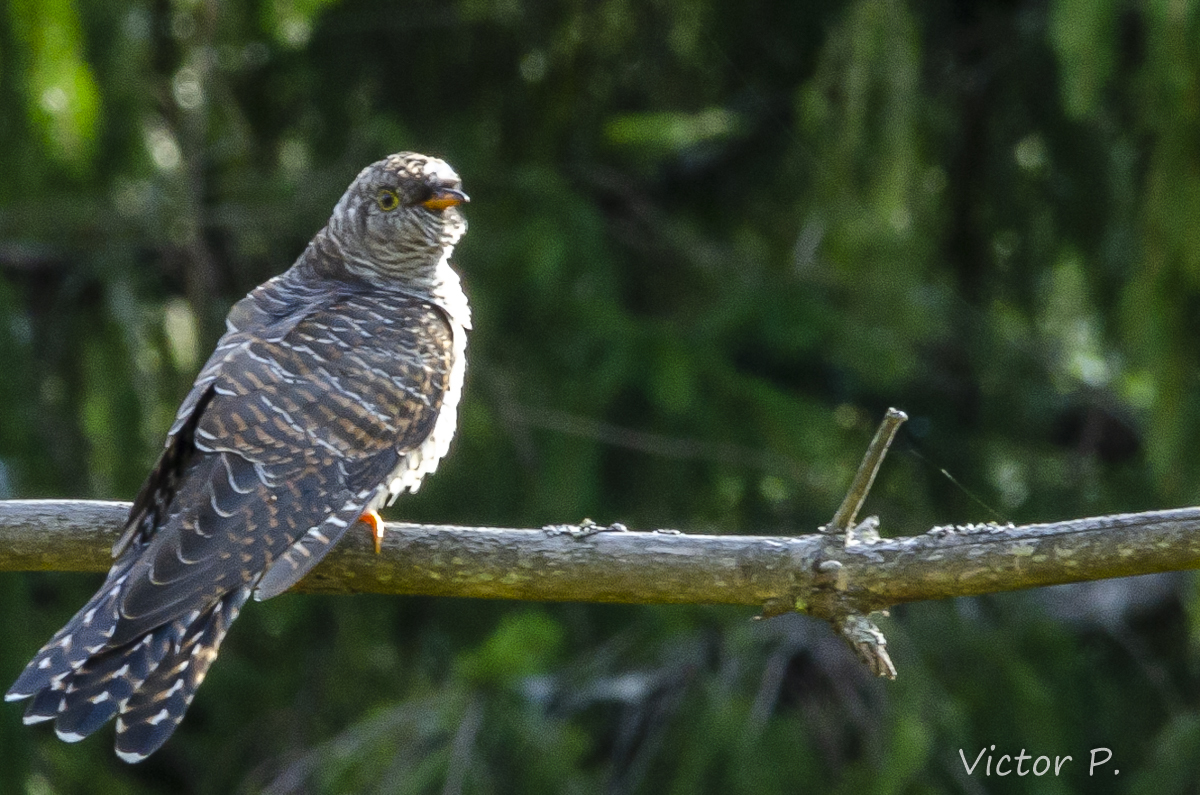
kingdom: Animalia
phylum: Chordata
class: Aves
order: Cuculiformes
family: Cuculidae
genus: Cuculus
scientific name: Cuculus canorus
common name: Common cuckoo
